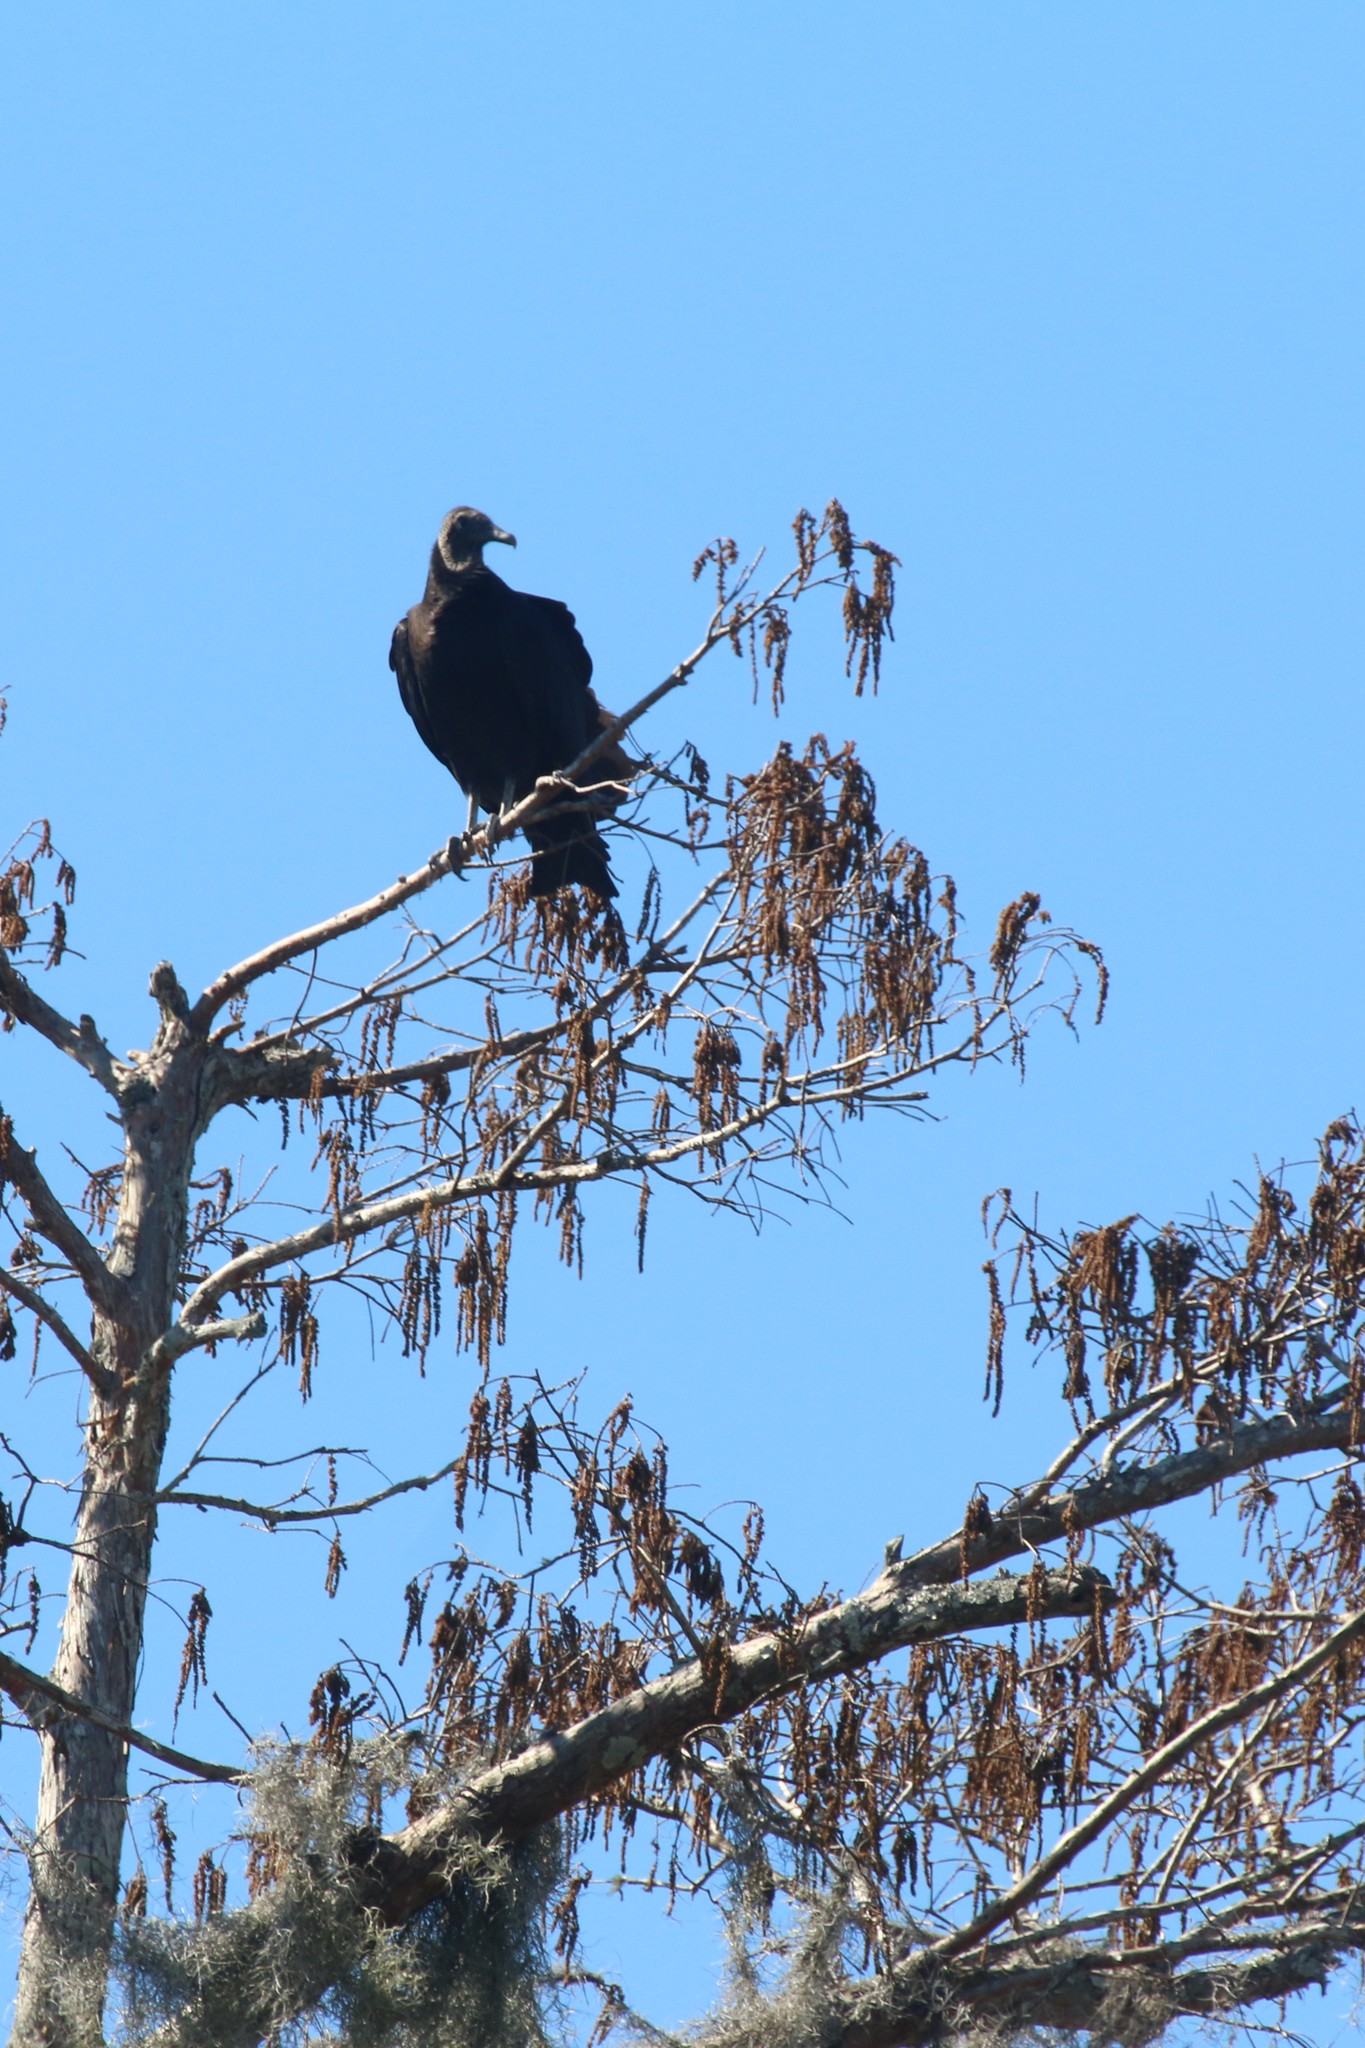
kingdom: Animalia
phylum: Chordata
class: Aves
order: Accipitriformes
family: Cathartidae
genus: Coragyps
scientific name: Coragyps atratus
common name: Black vulture
